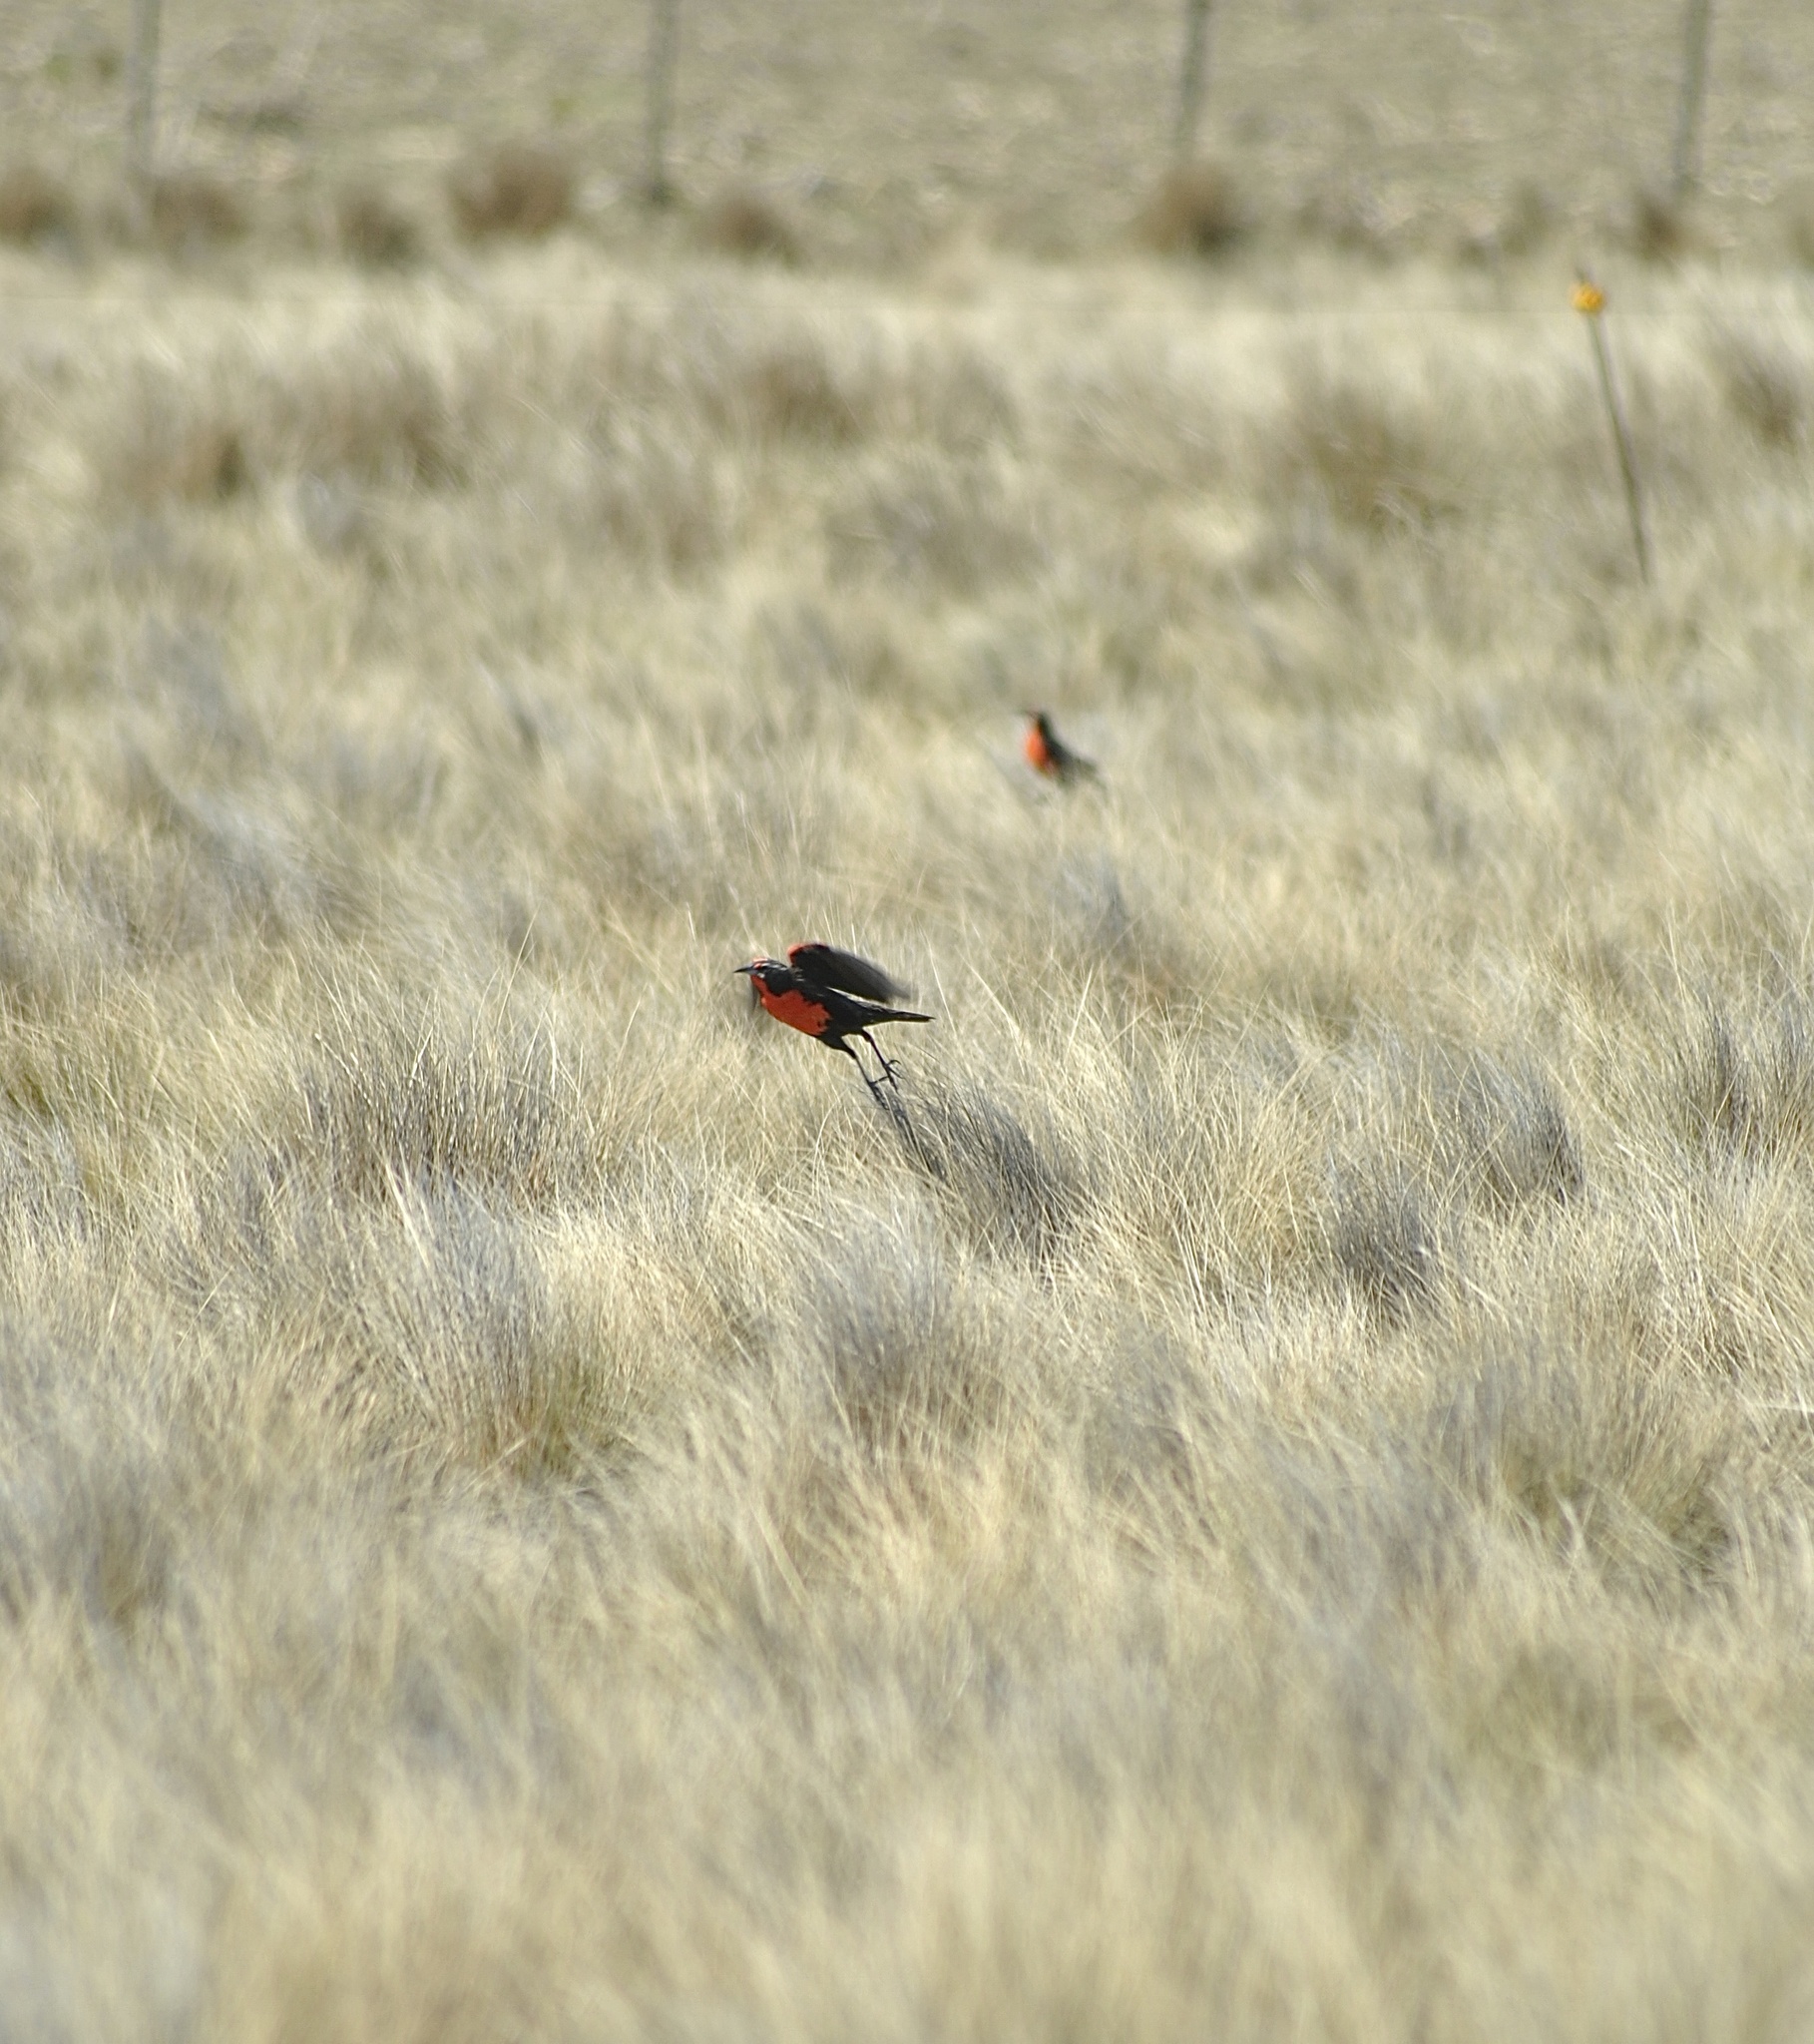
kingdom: Animalia
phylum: Chordata
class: Aves
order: Passeriformes
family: Icteridae
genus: Sturnella
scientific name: Sturnella defilippii
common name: Pampas meadowlark
